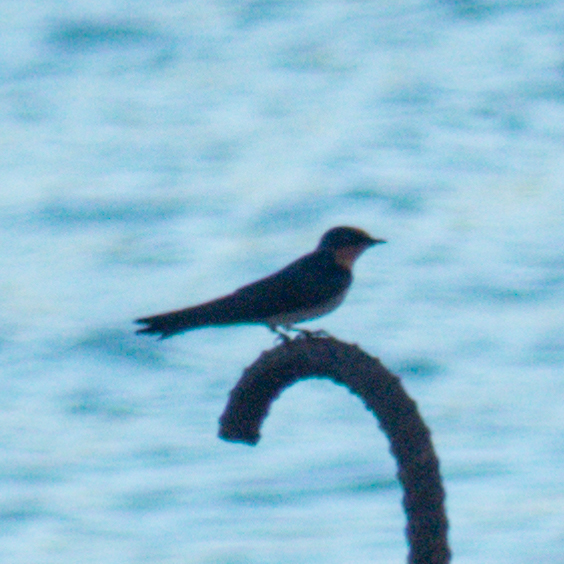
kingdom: Animalia
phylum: Chordata
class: Aves
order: Passeriformes
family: Hirundinidae
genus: Hirundo
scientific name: Hirundo tahitica
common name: Pacific swallow
